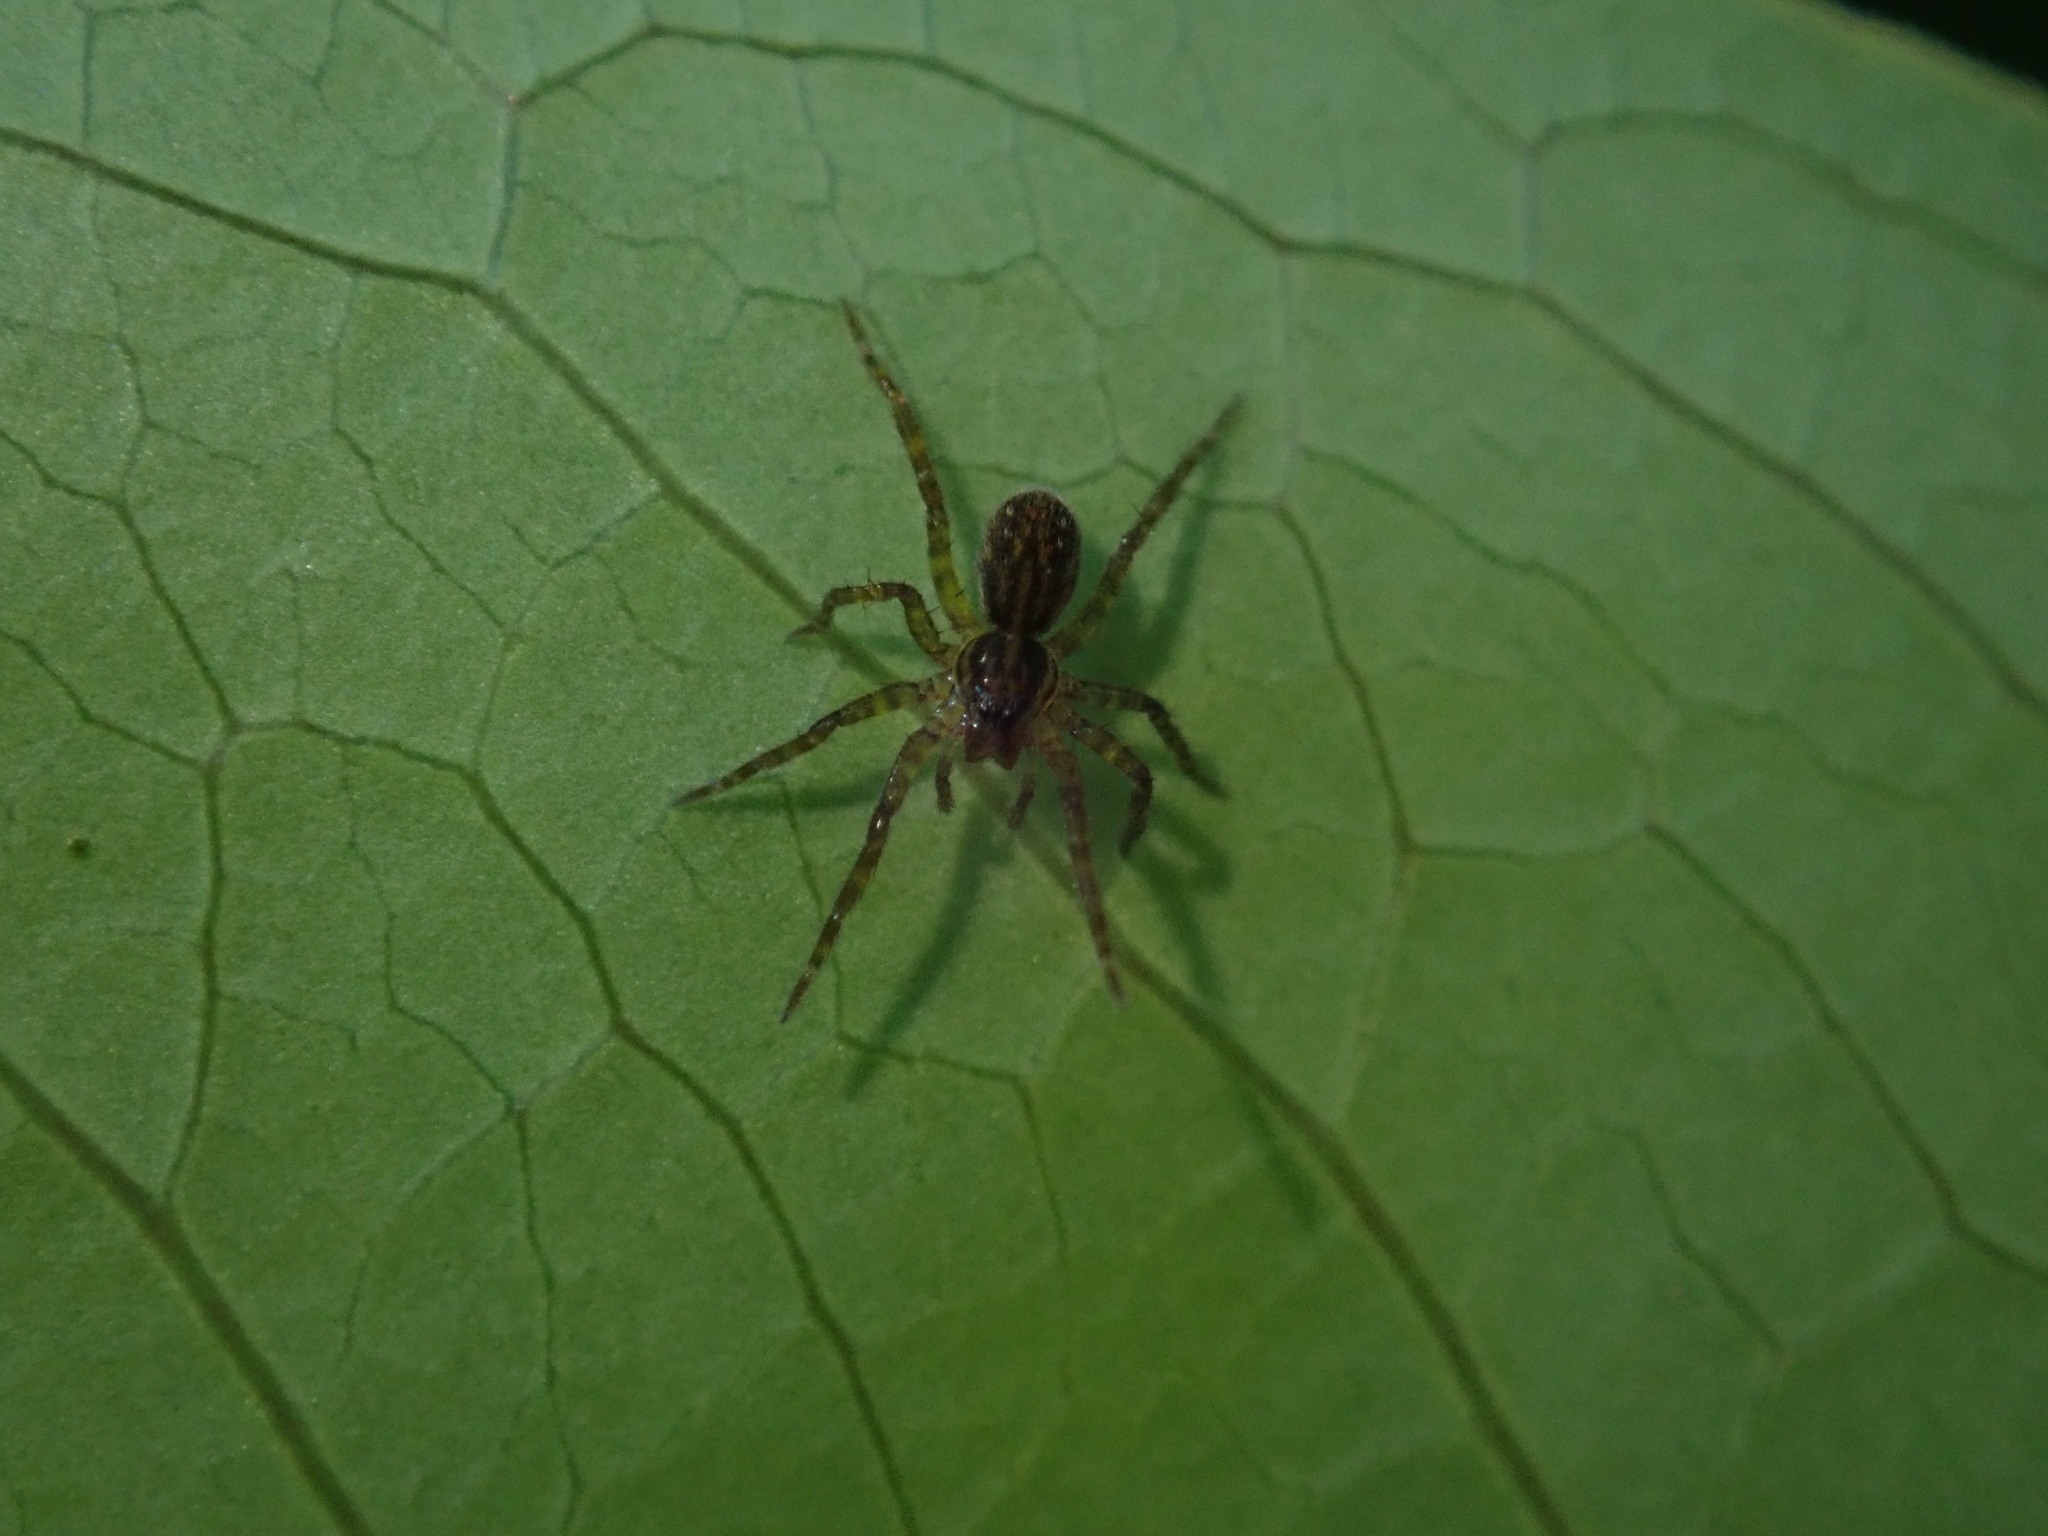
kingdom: Animalia
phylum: Arthropoda
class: Arachnida
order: Araneae
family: Lycosidae
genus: Allotrochosina
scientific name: Allotrochosina schauinslandi
